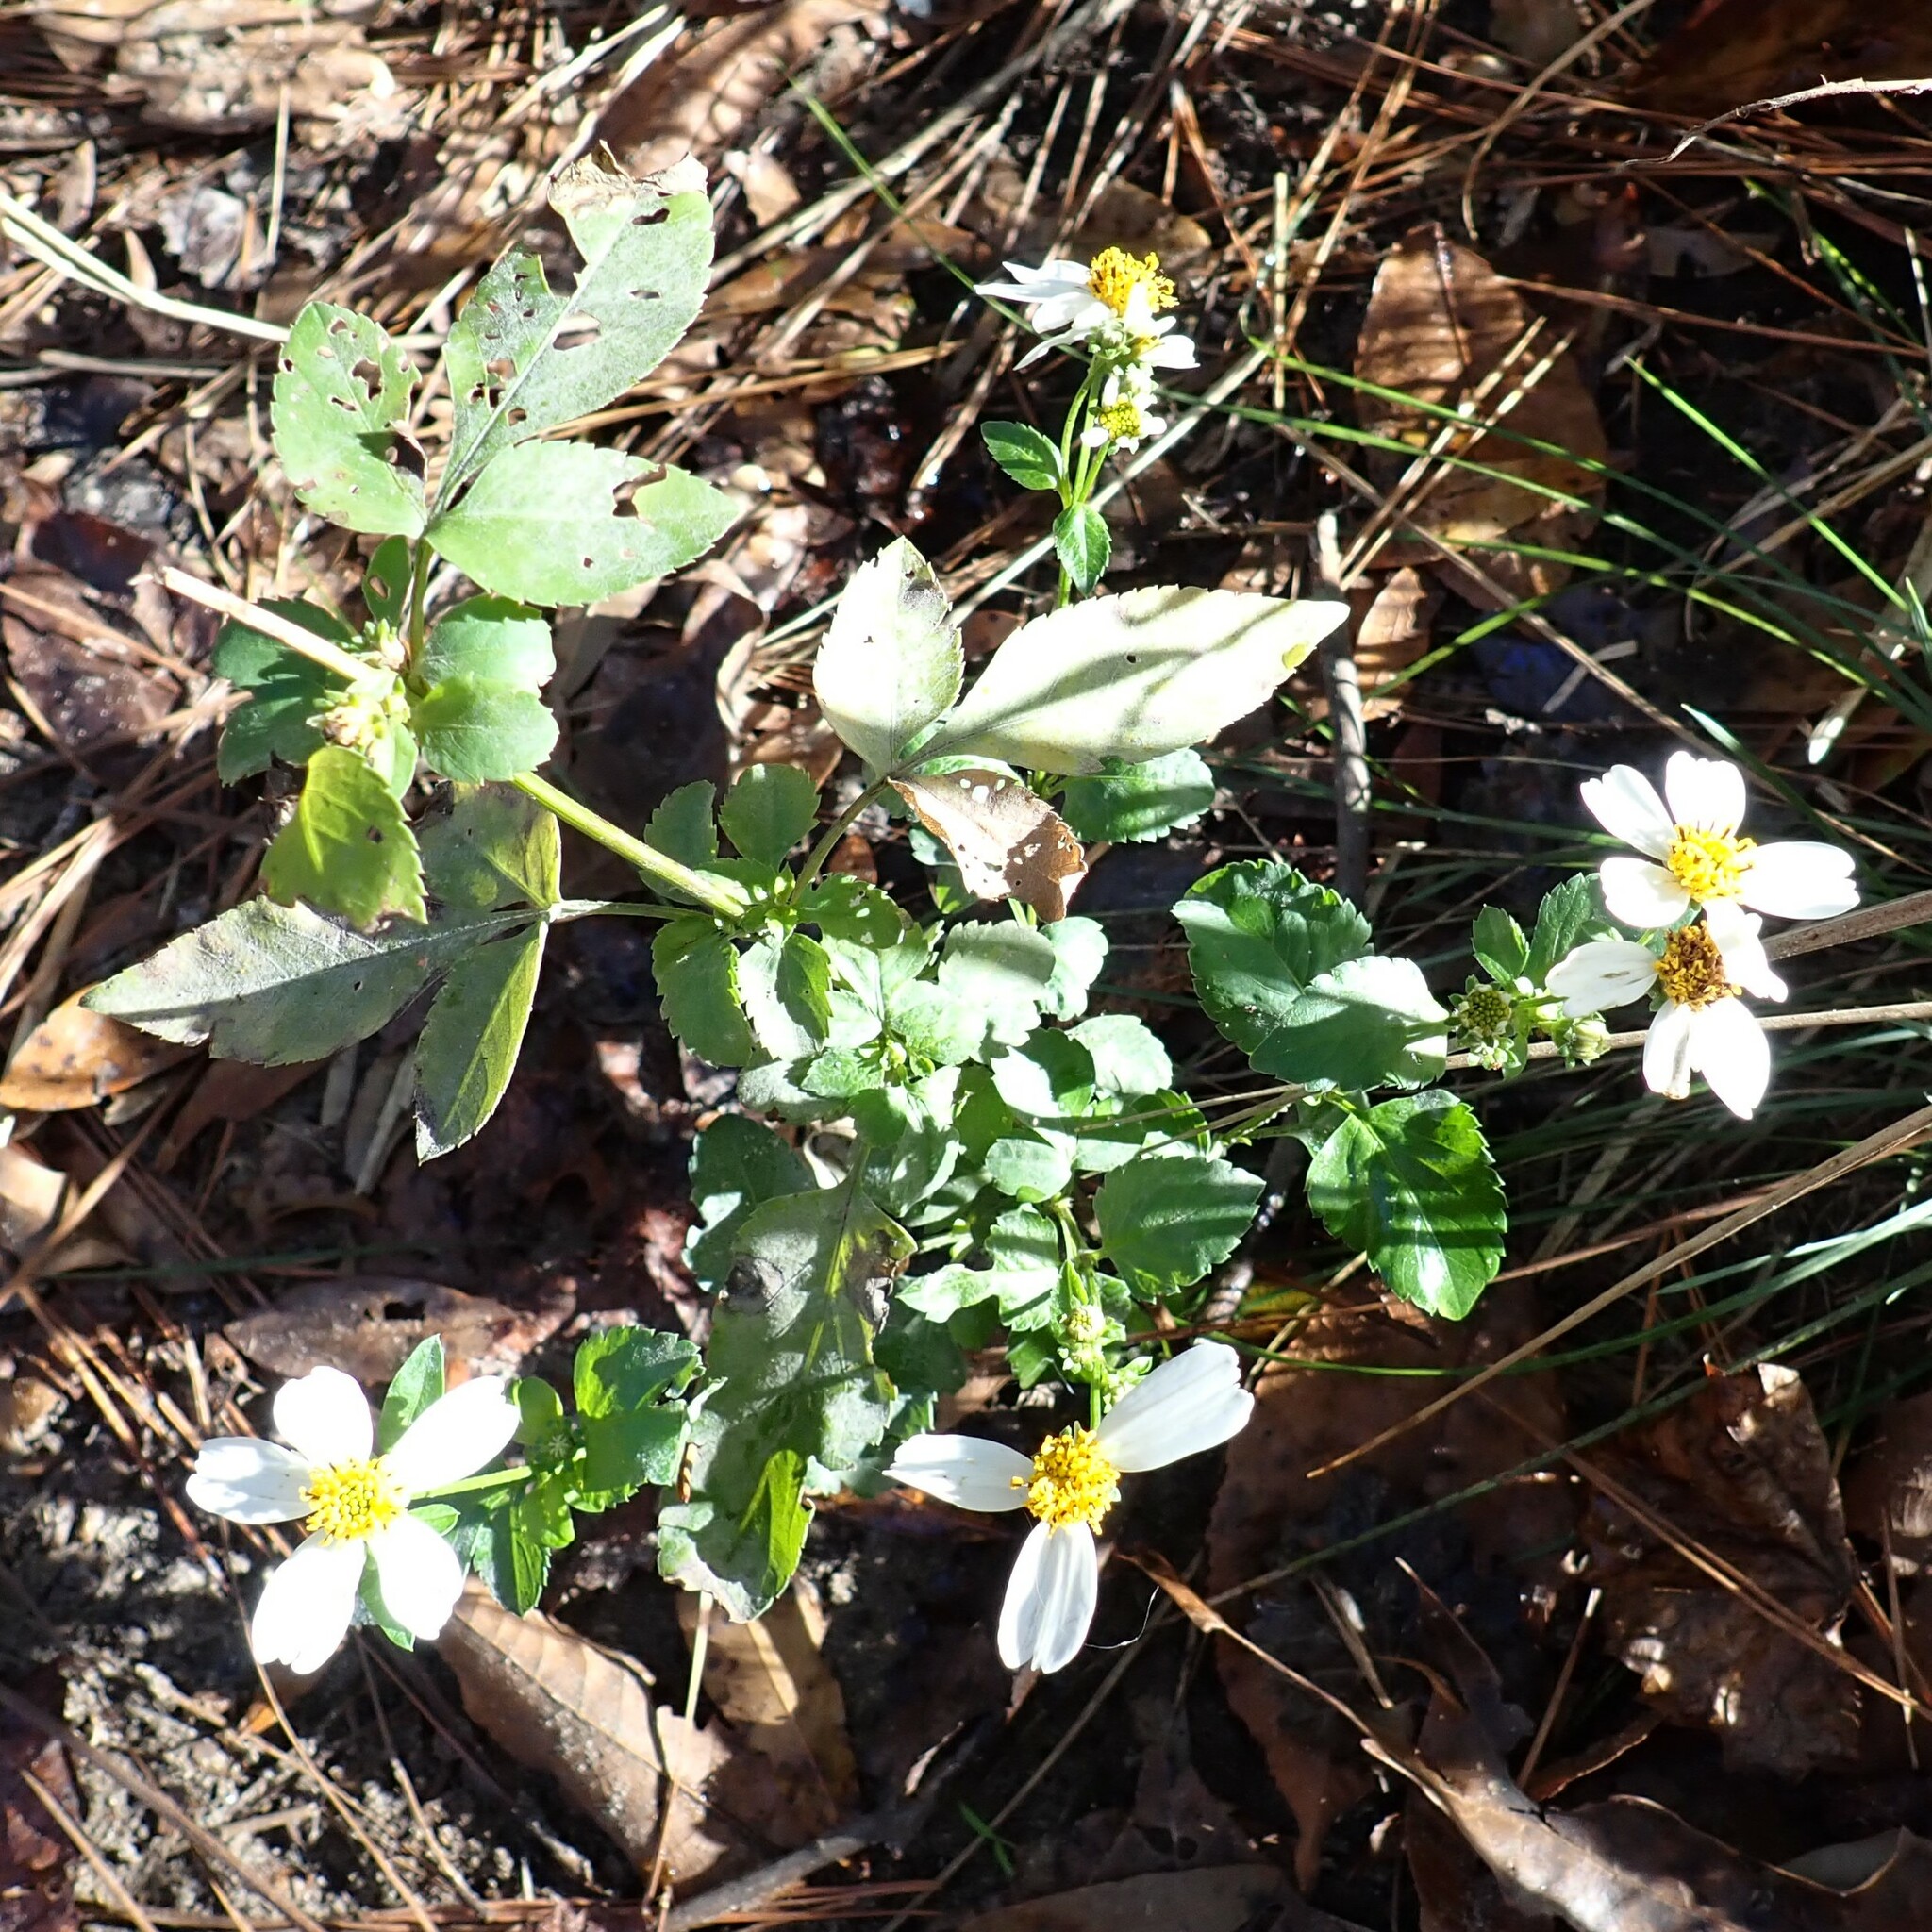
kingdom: Plantae
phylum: Tracheophyta
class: Magnoliopsida
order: Asterales
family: Asteraceae
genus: Bidens
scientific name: Bidens alba
